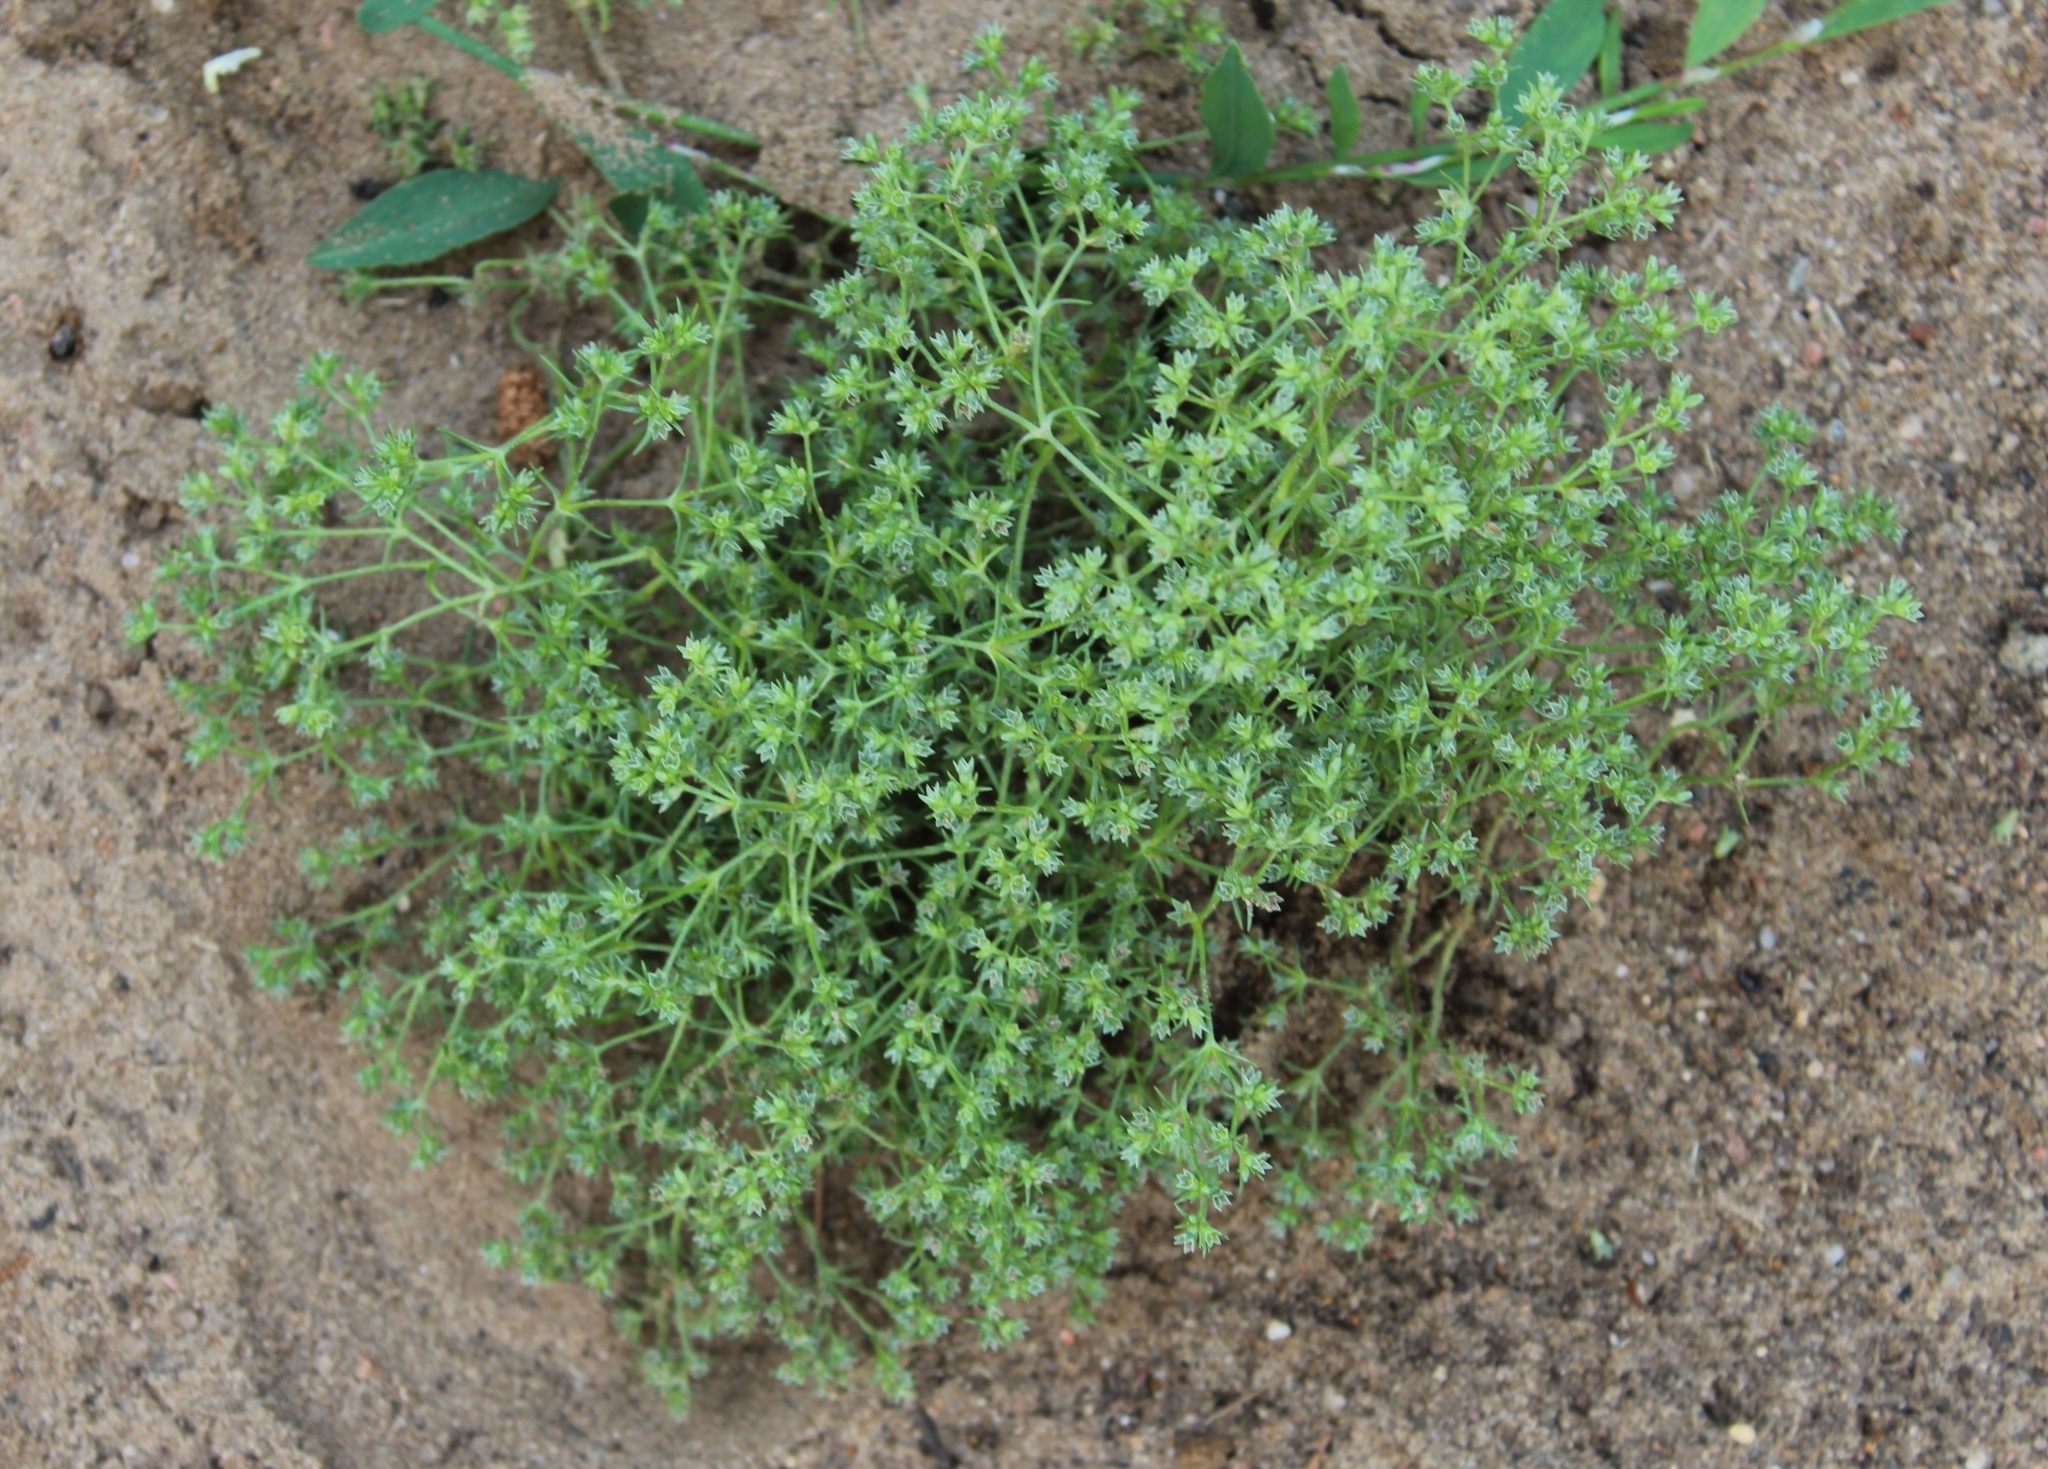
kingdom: Plantae
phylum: Tracheophyta
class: Magnoliopsida
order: Caryophyllales
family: Caryophyllaceae
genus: Scleranthus
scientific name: Scleranthus annuus
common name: Annual knawel
